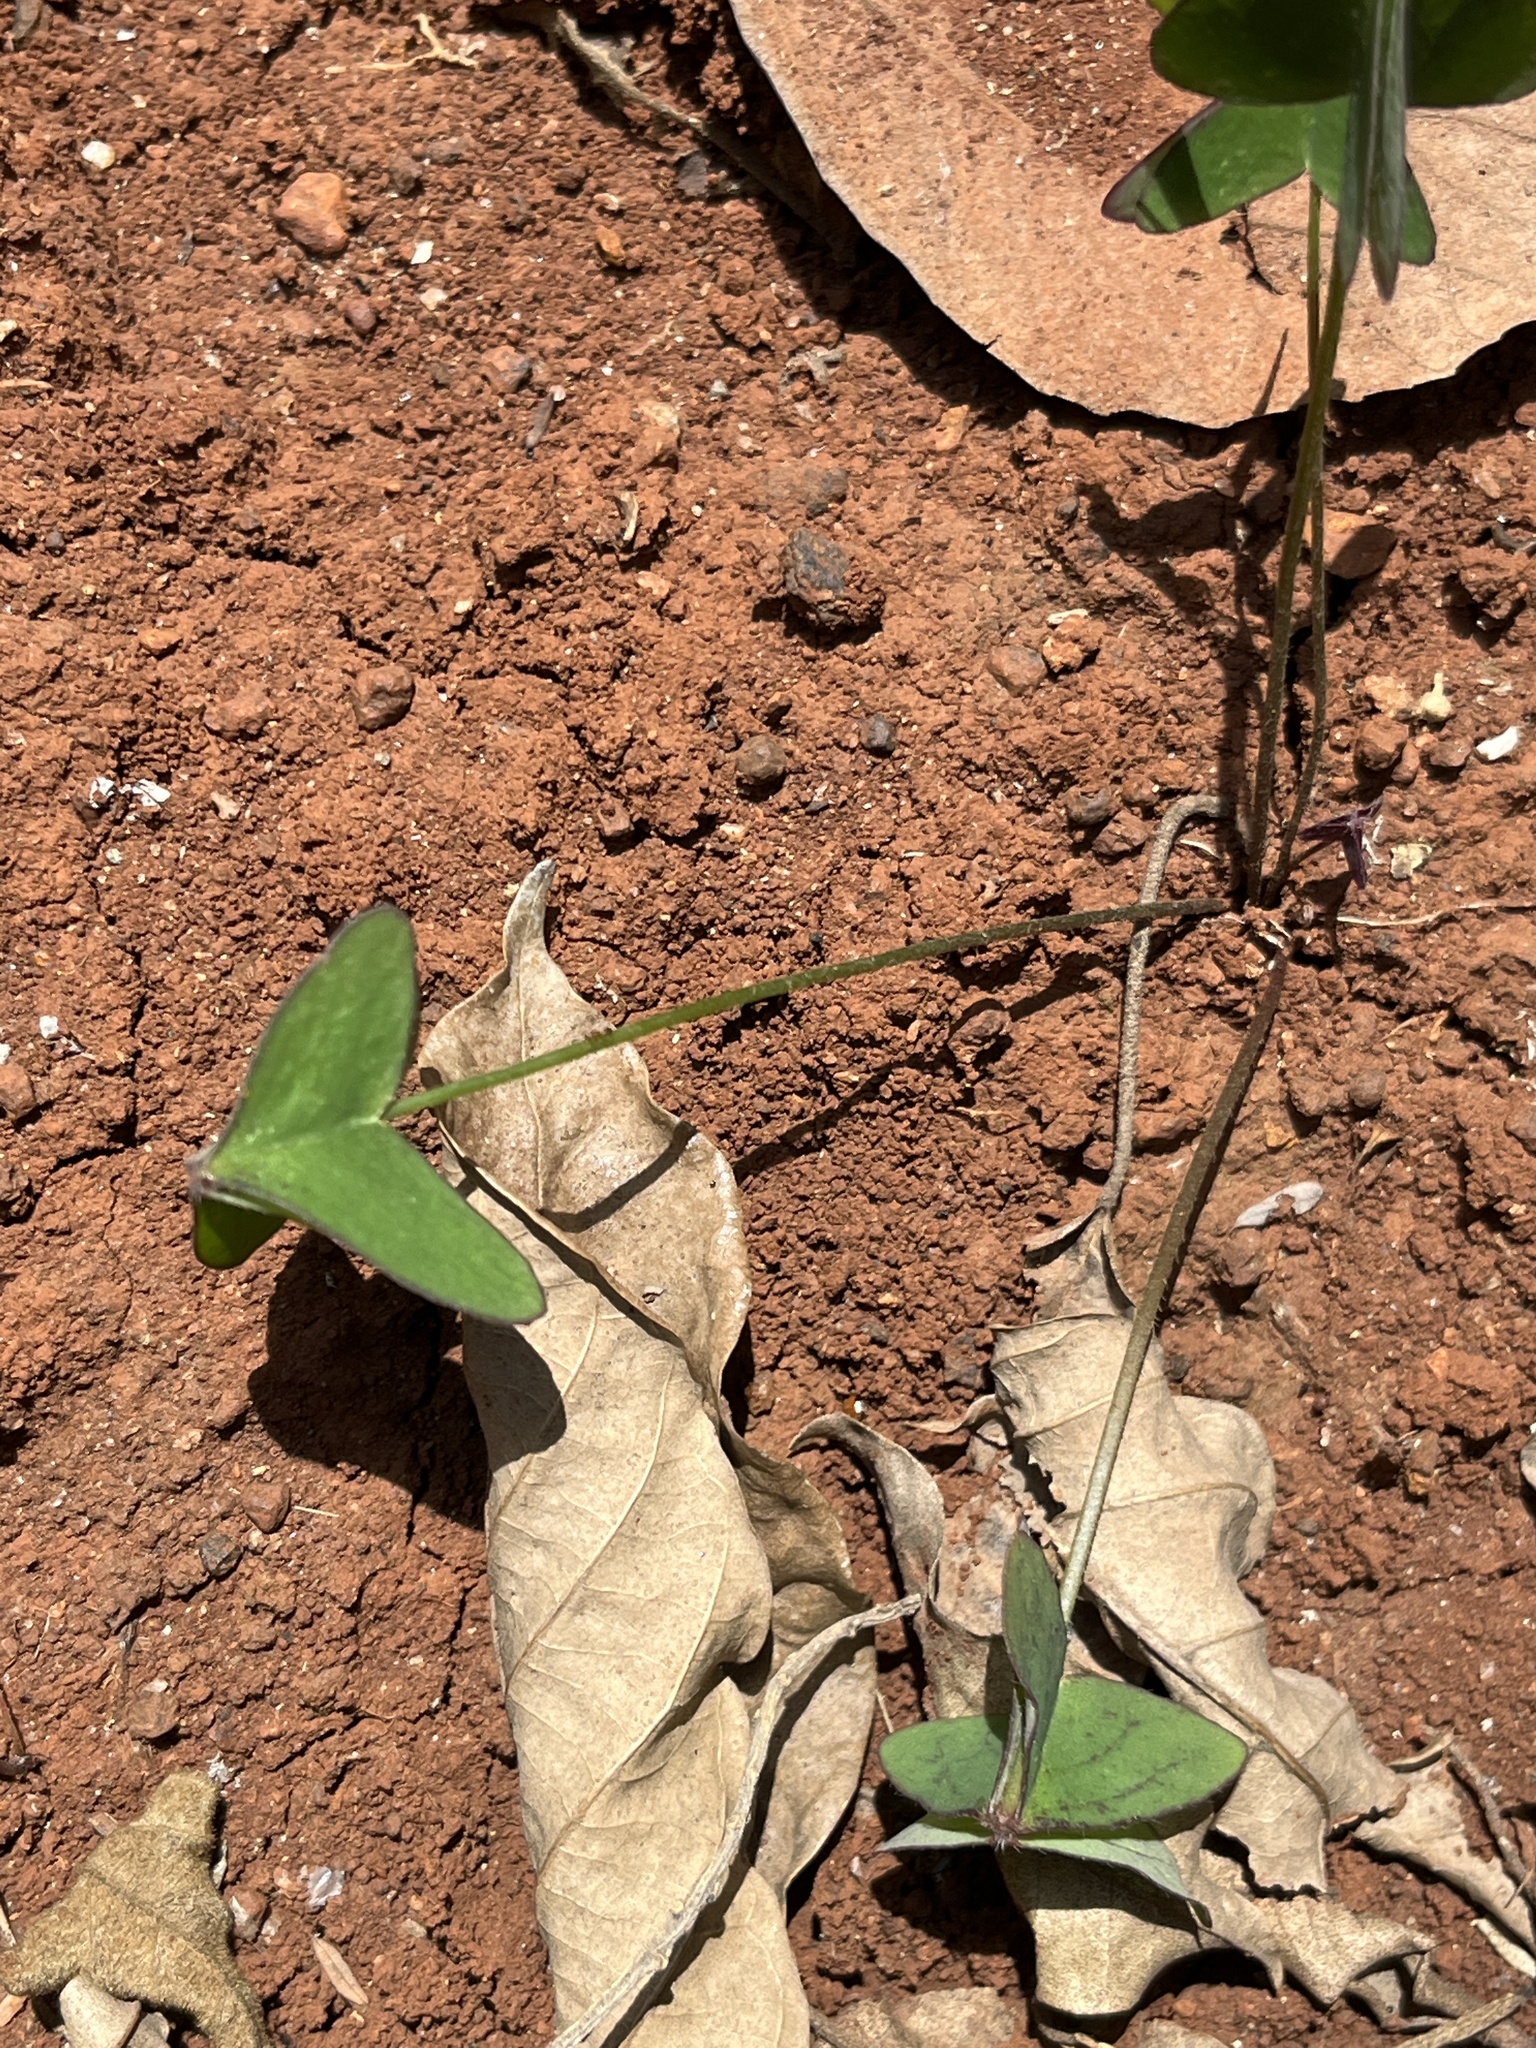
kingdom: Plantae
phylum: Tracheophyta
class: Magnoliopsida
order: Oxalidales
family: Oxalidaceae
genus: Oxalis
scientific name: Oxalis latifolia
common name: Garden pink-sorrel
